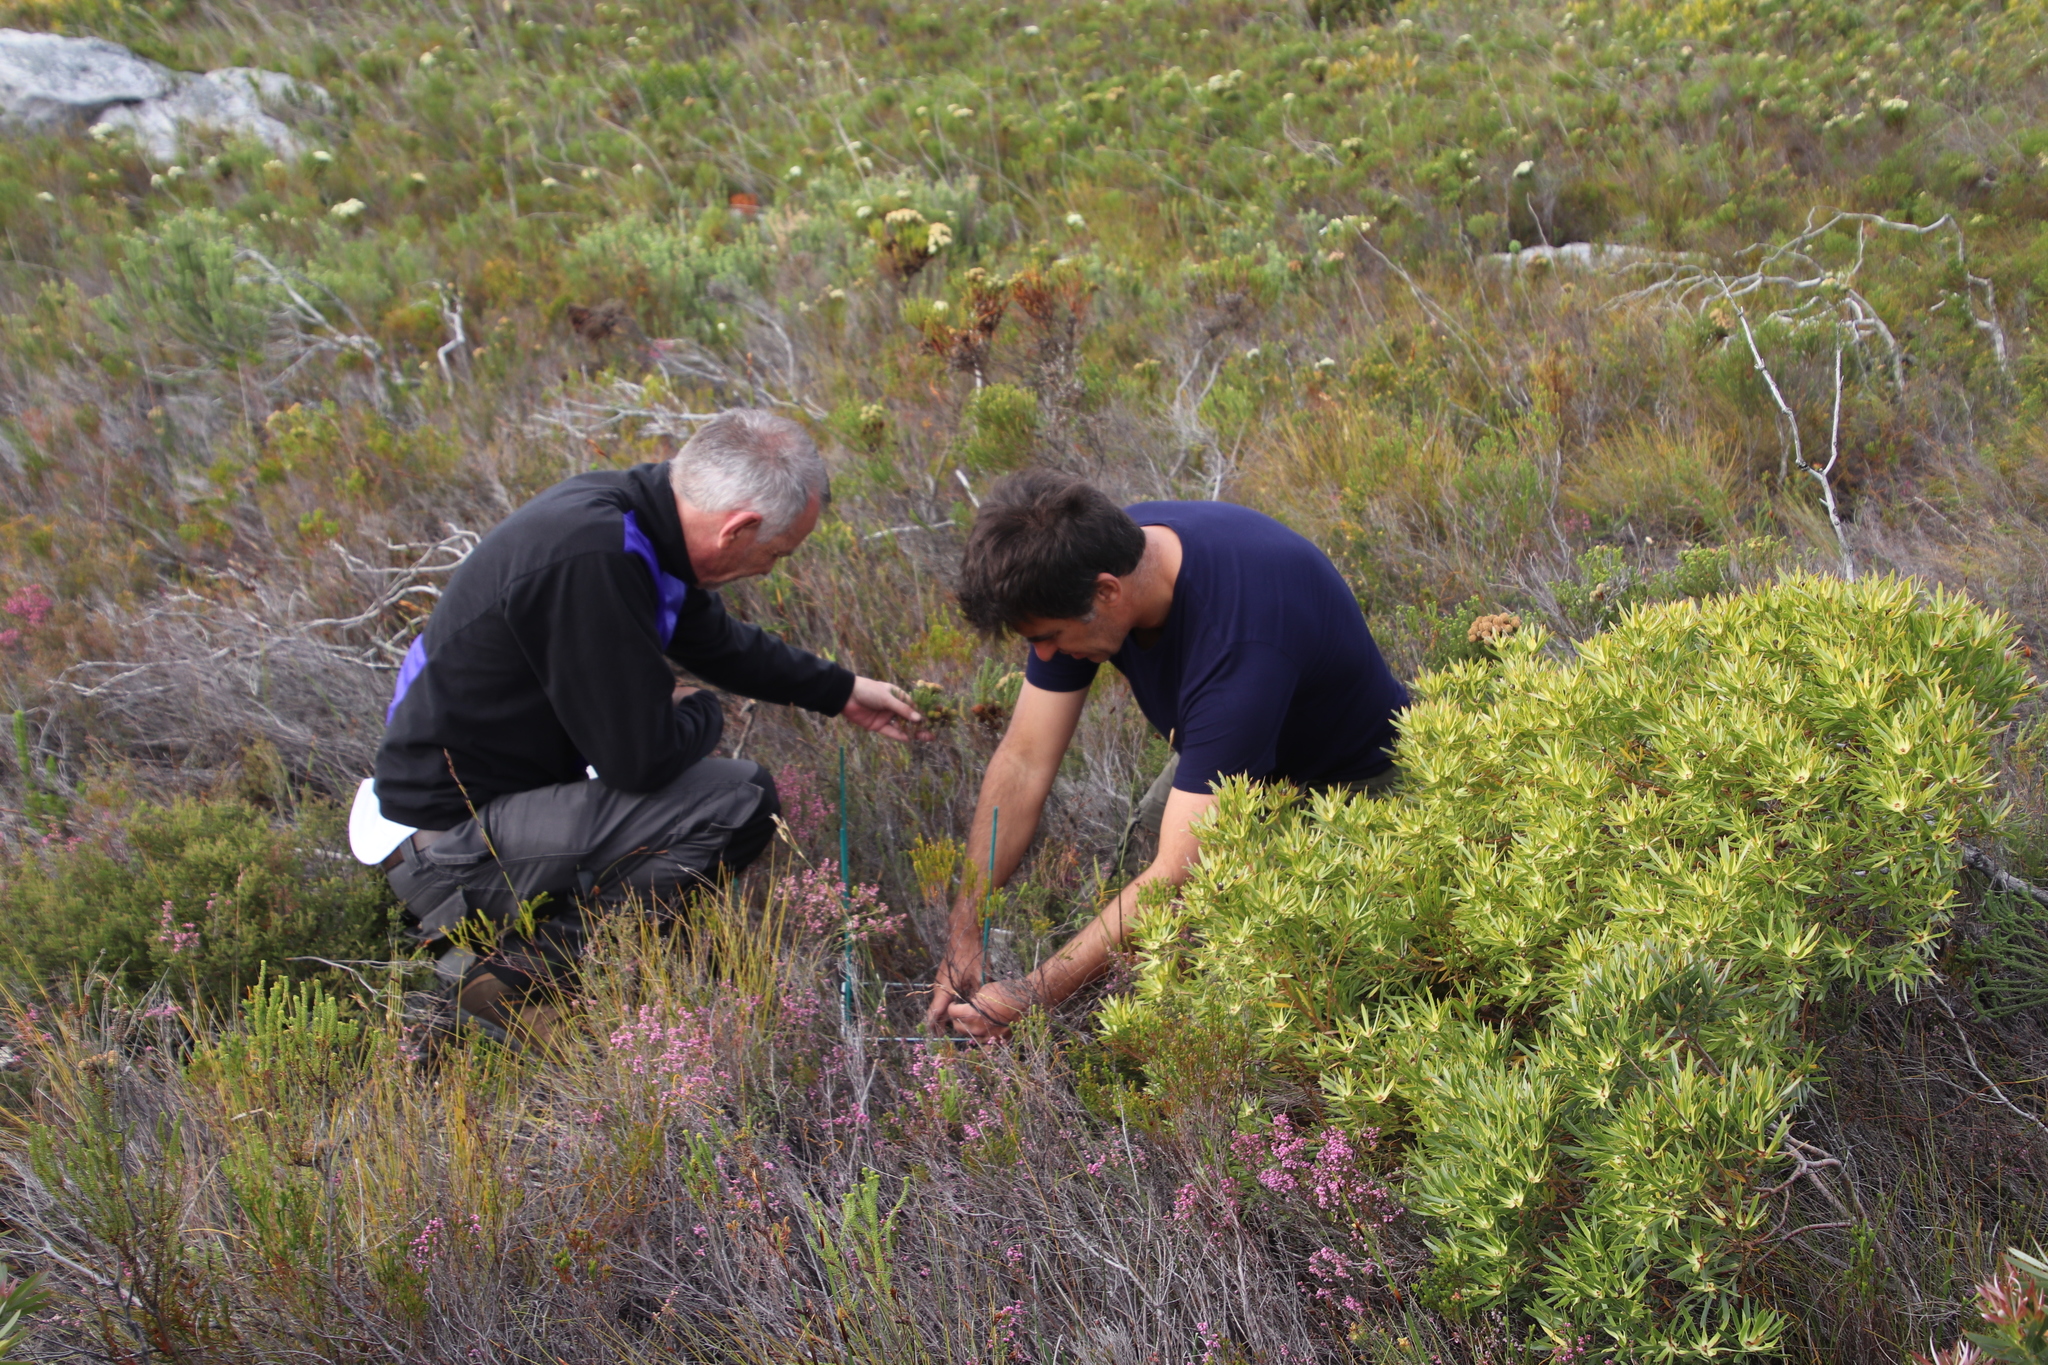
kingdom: Plantae
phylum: Tracheophyta
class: Magnoliopsida
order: Proteales
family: Proteaceae
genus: Leucadendron
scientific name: Leucadendron xanthoconus
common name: Sickle-leaf conebush
